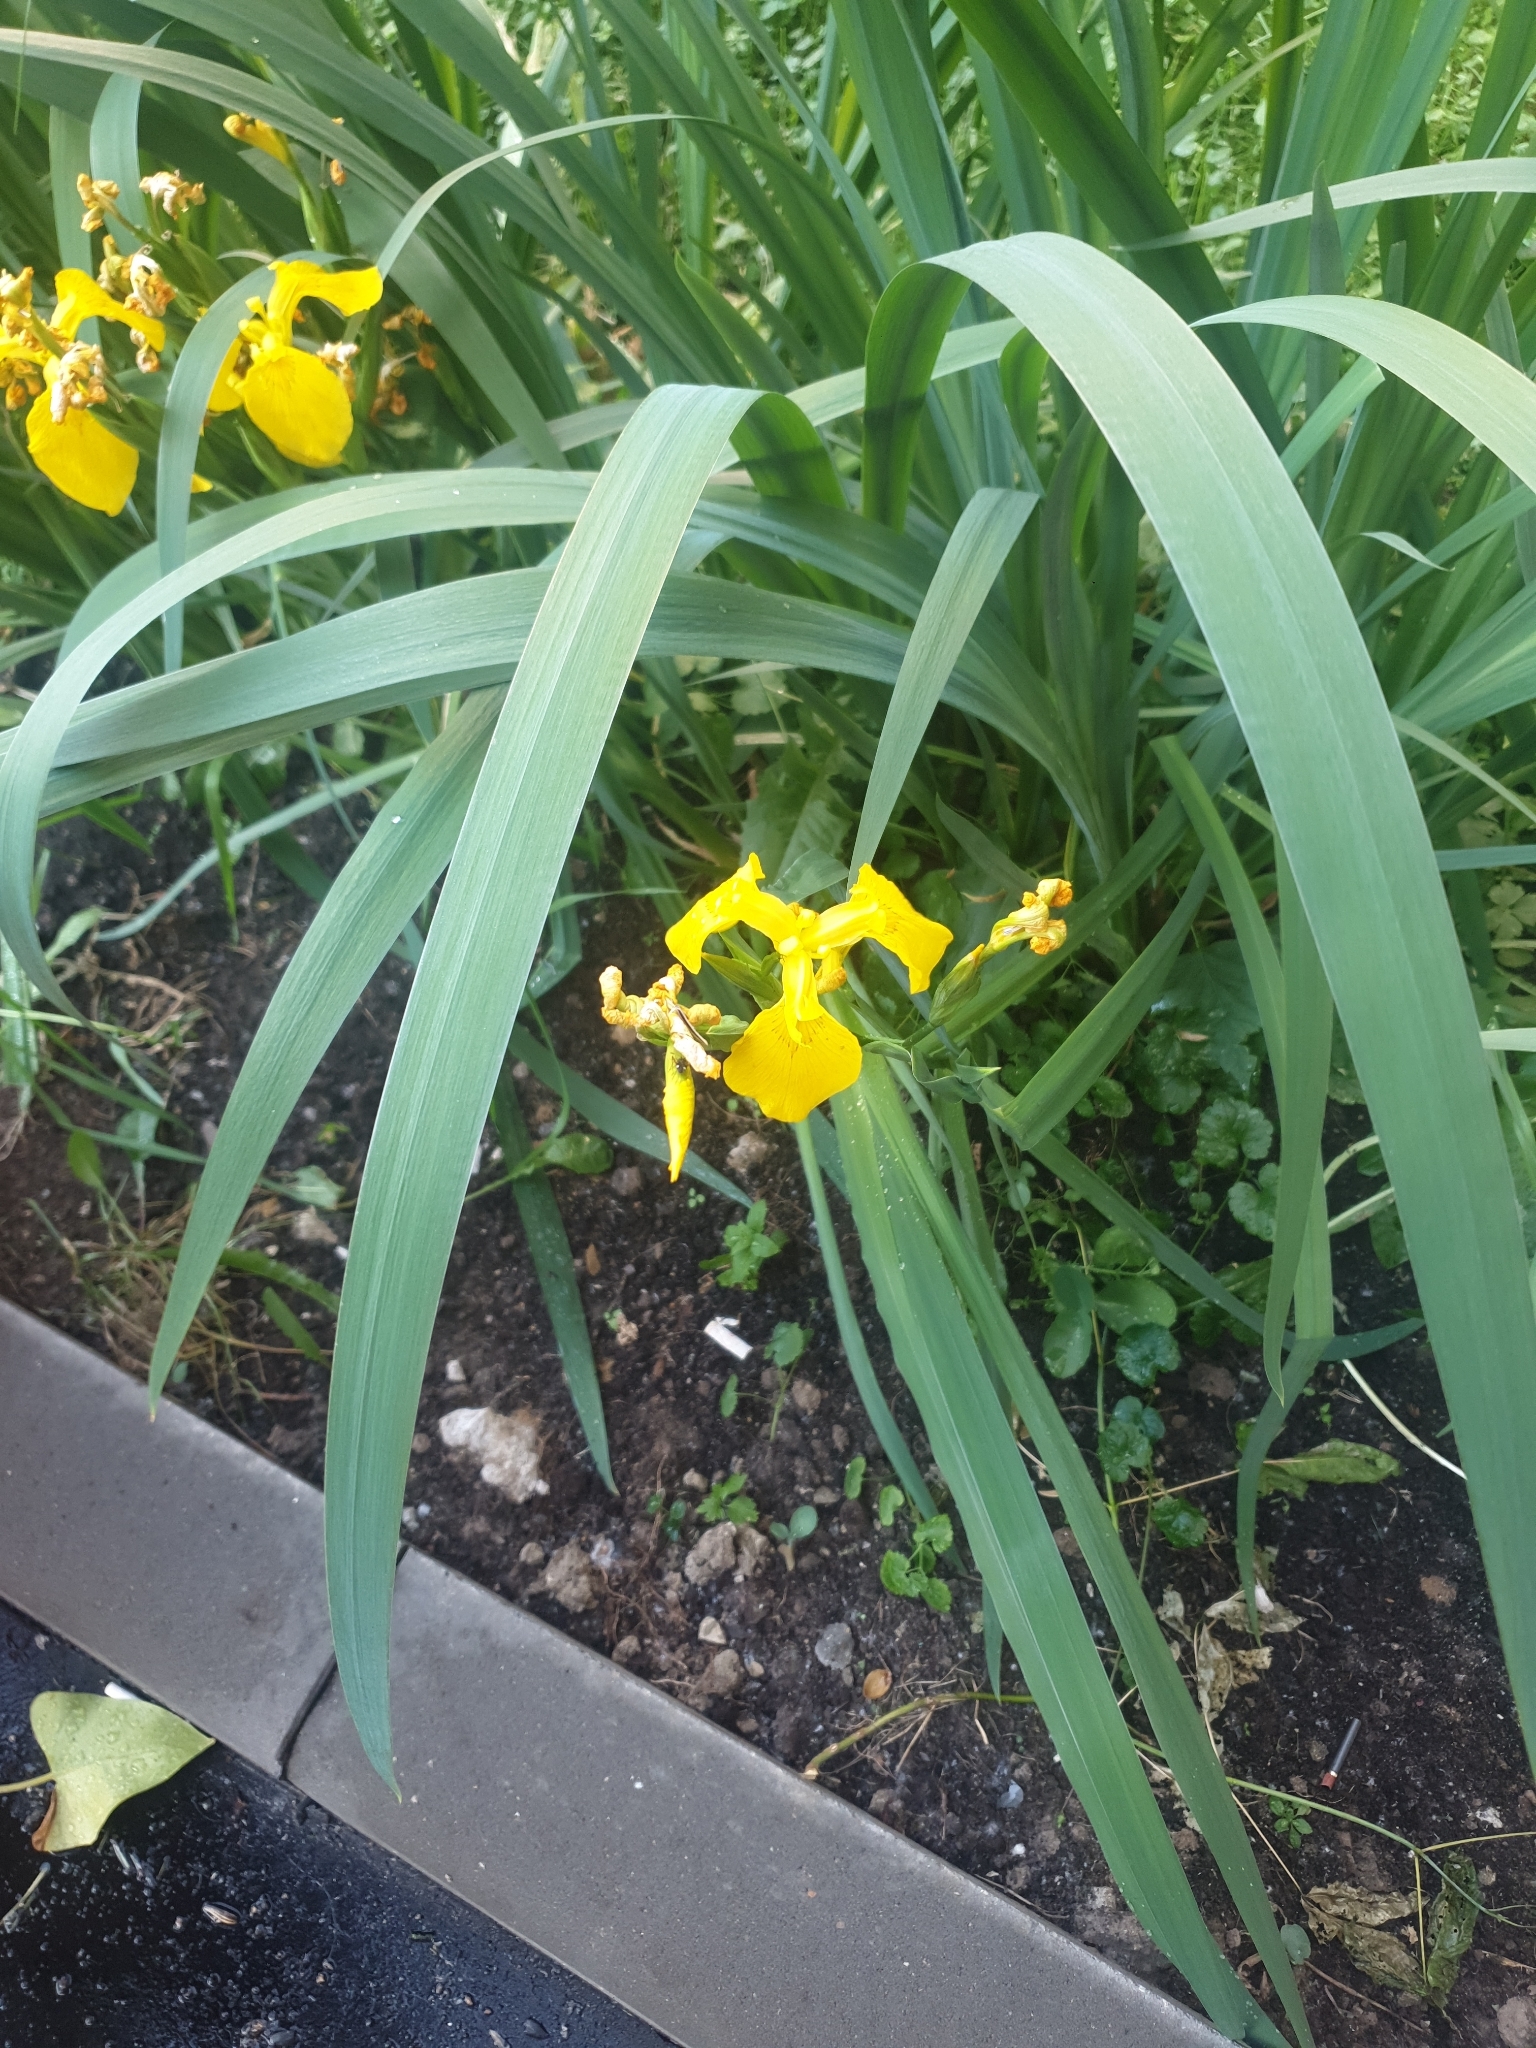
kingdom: Plantae
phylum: Tracheophyta
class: Liliopsida
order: Asparagales
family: Iridaceae
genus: Iris
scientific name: Iris pseudacorus
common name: Yellow flag
